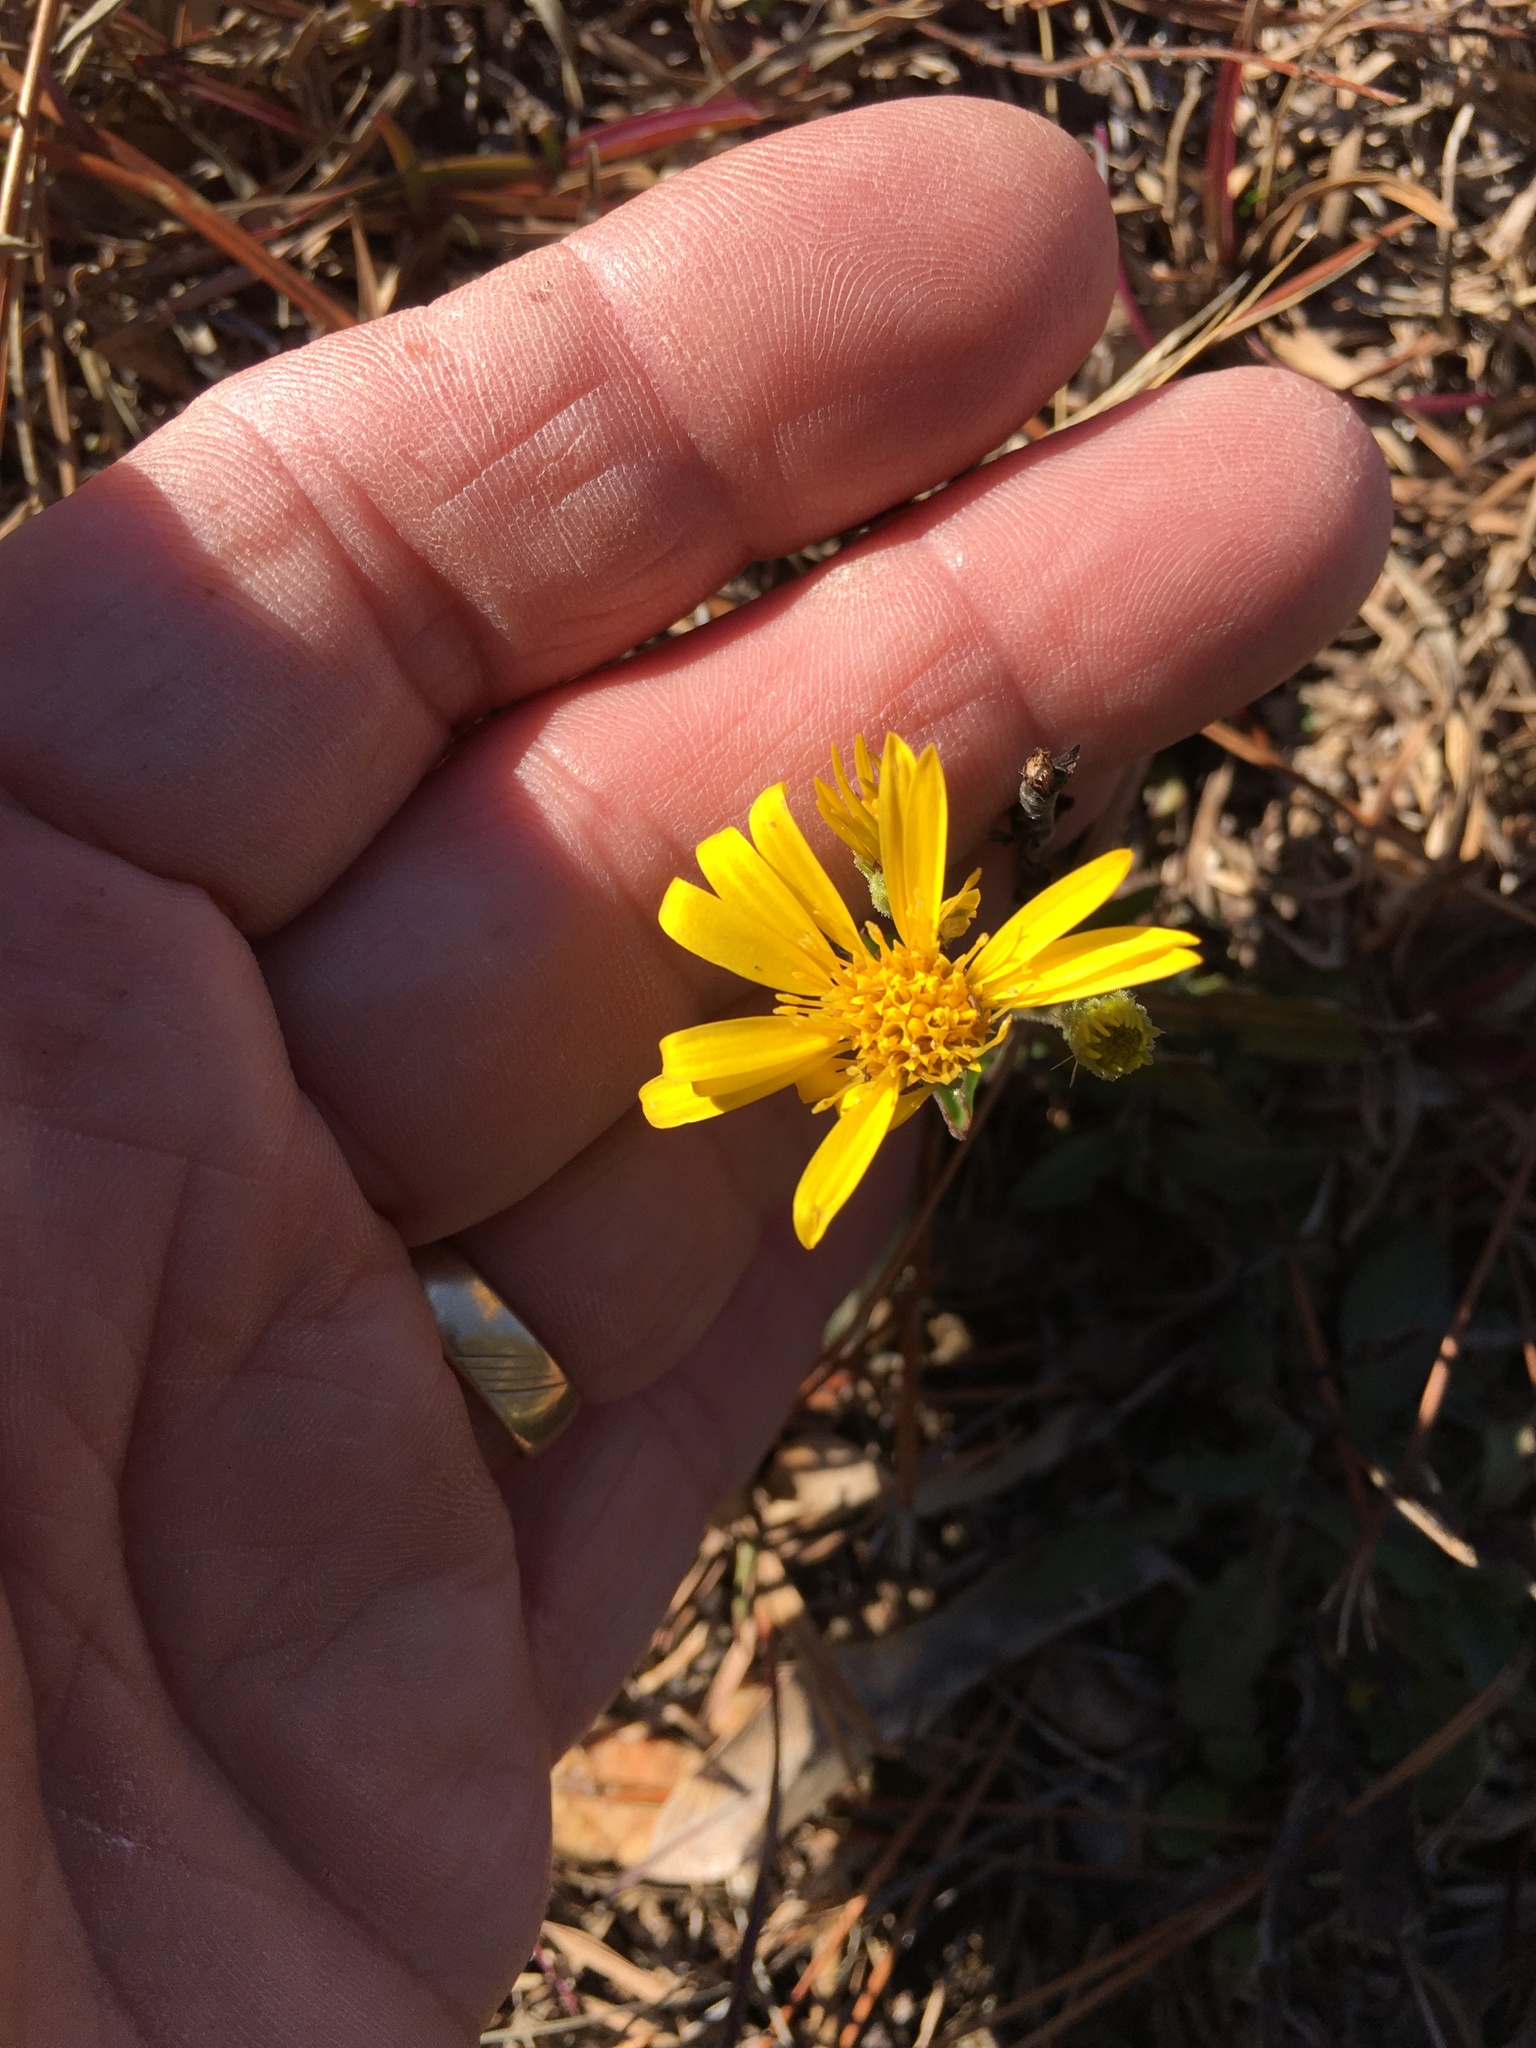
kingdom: Plantae
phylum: Tracheophyta
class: Magnoliopsida
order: Asterales
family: Asteraceae
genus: Chrysopsis
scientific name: Chrysopsis mariana
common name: Maryland golden-aster
